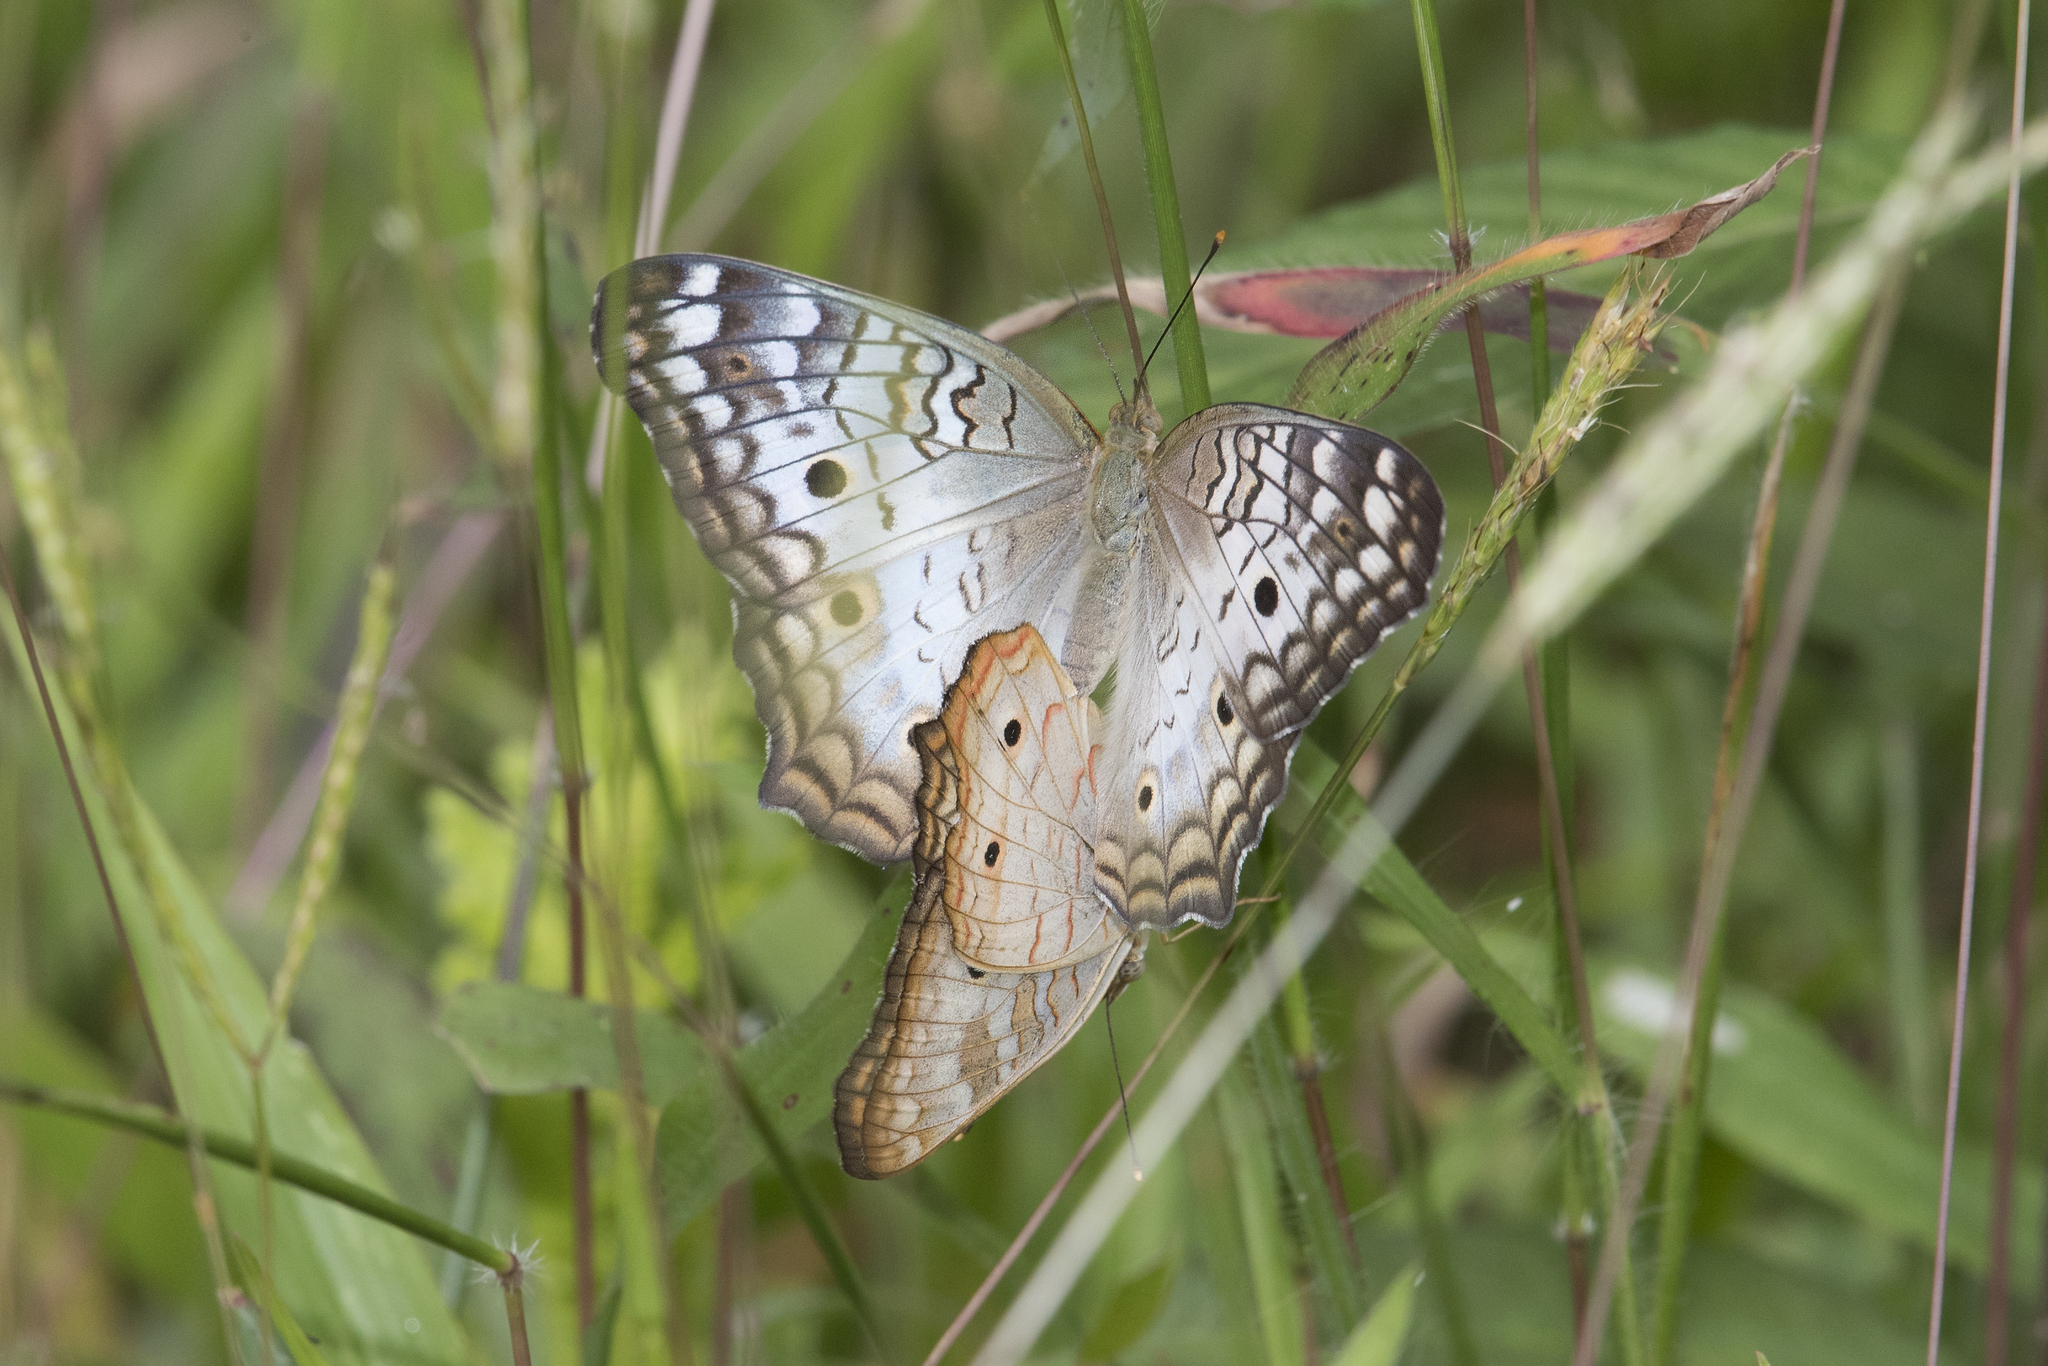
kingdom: Animalia
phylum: Arthropoda
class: Insecta
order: Lepidoptera
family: Nymphalidae
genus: Anartia
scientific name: Anartia jatrophae
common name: White peacock
